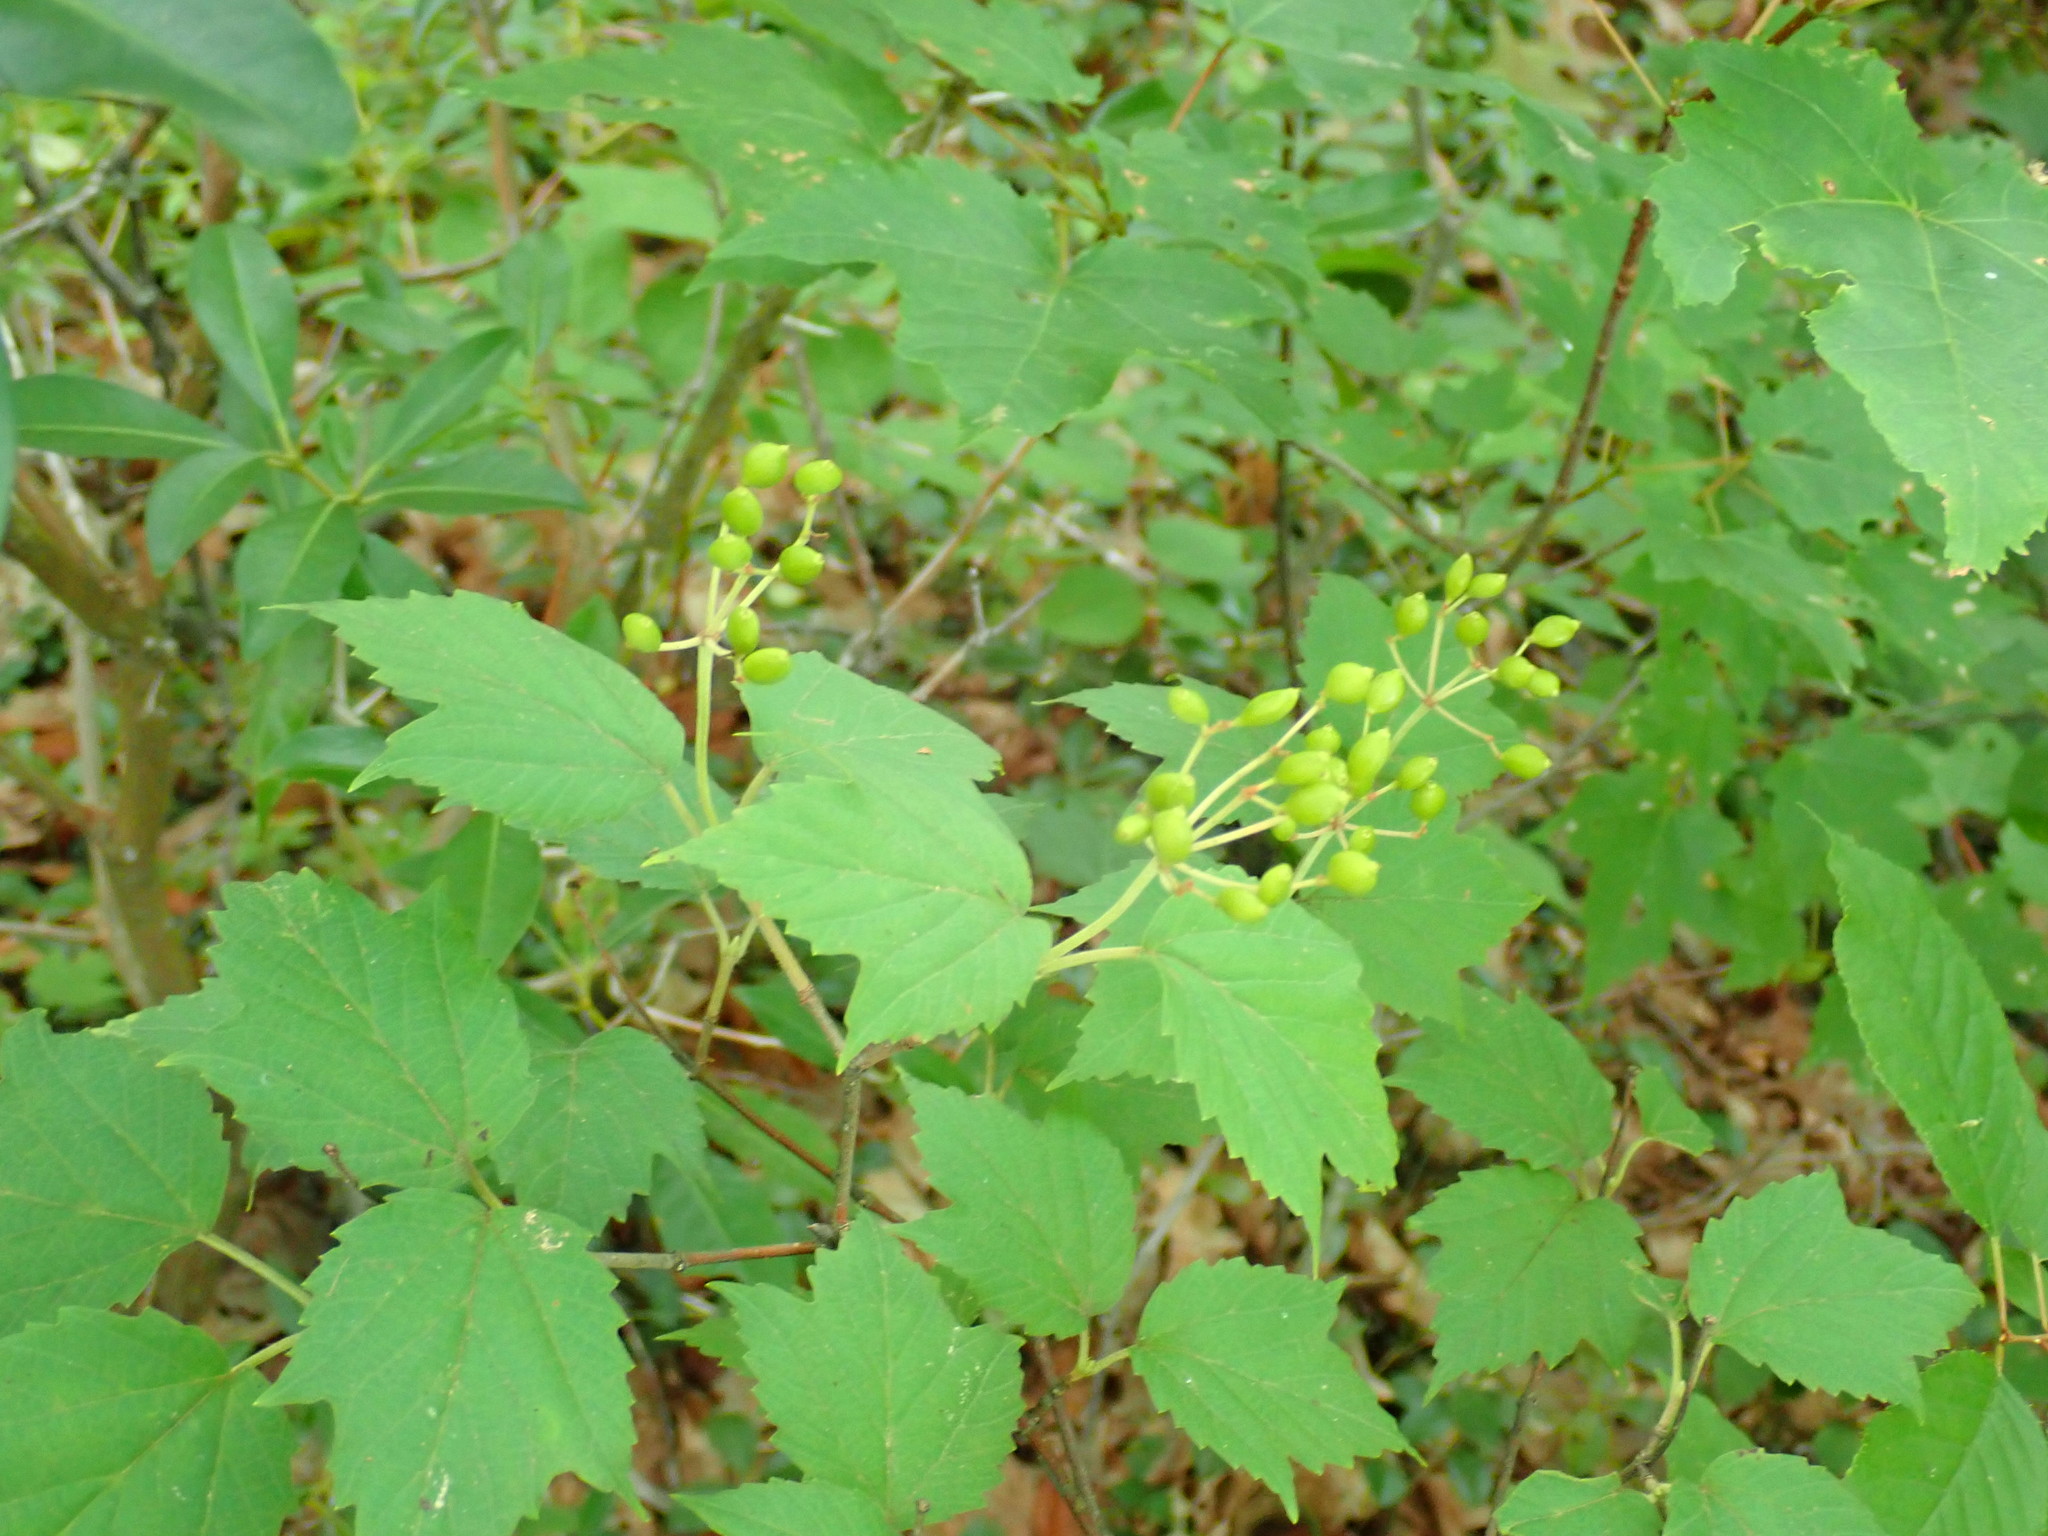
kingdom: Plantae
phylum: Tracheophyta
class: Magnoliopsida
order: Dipsacales
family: Viburnaceae
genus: Viburnum
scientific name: Viburnum acerifolium
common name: Dockmackie
